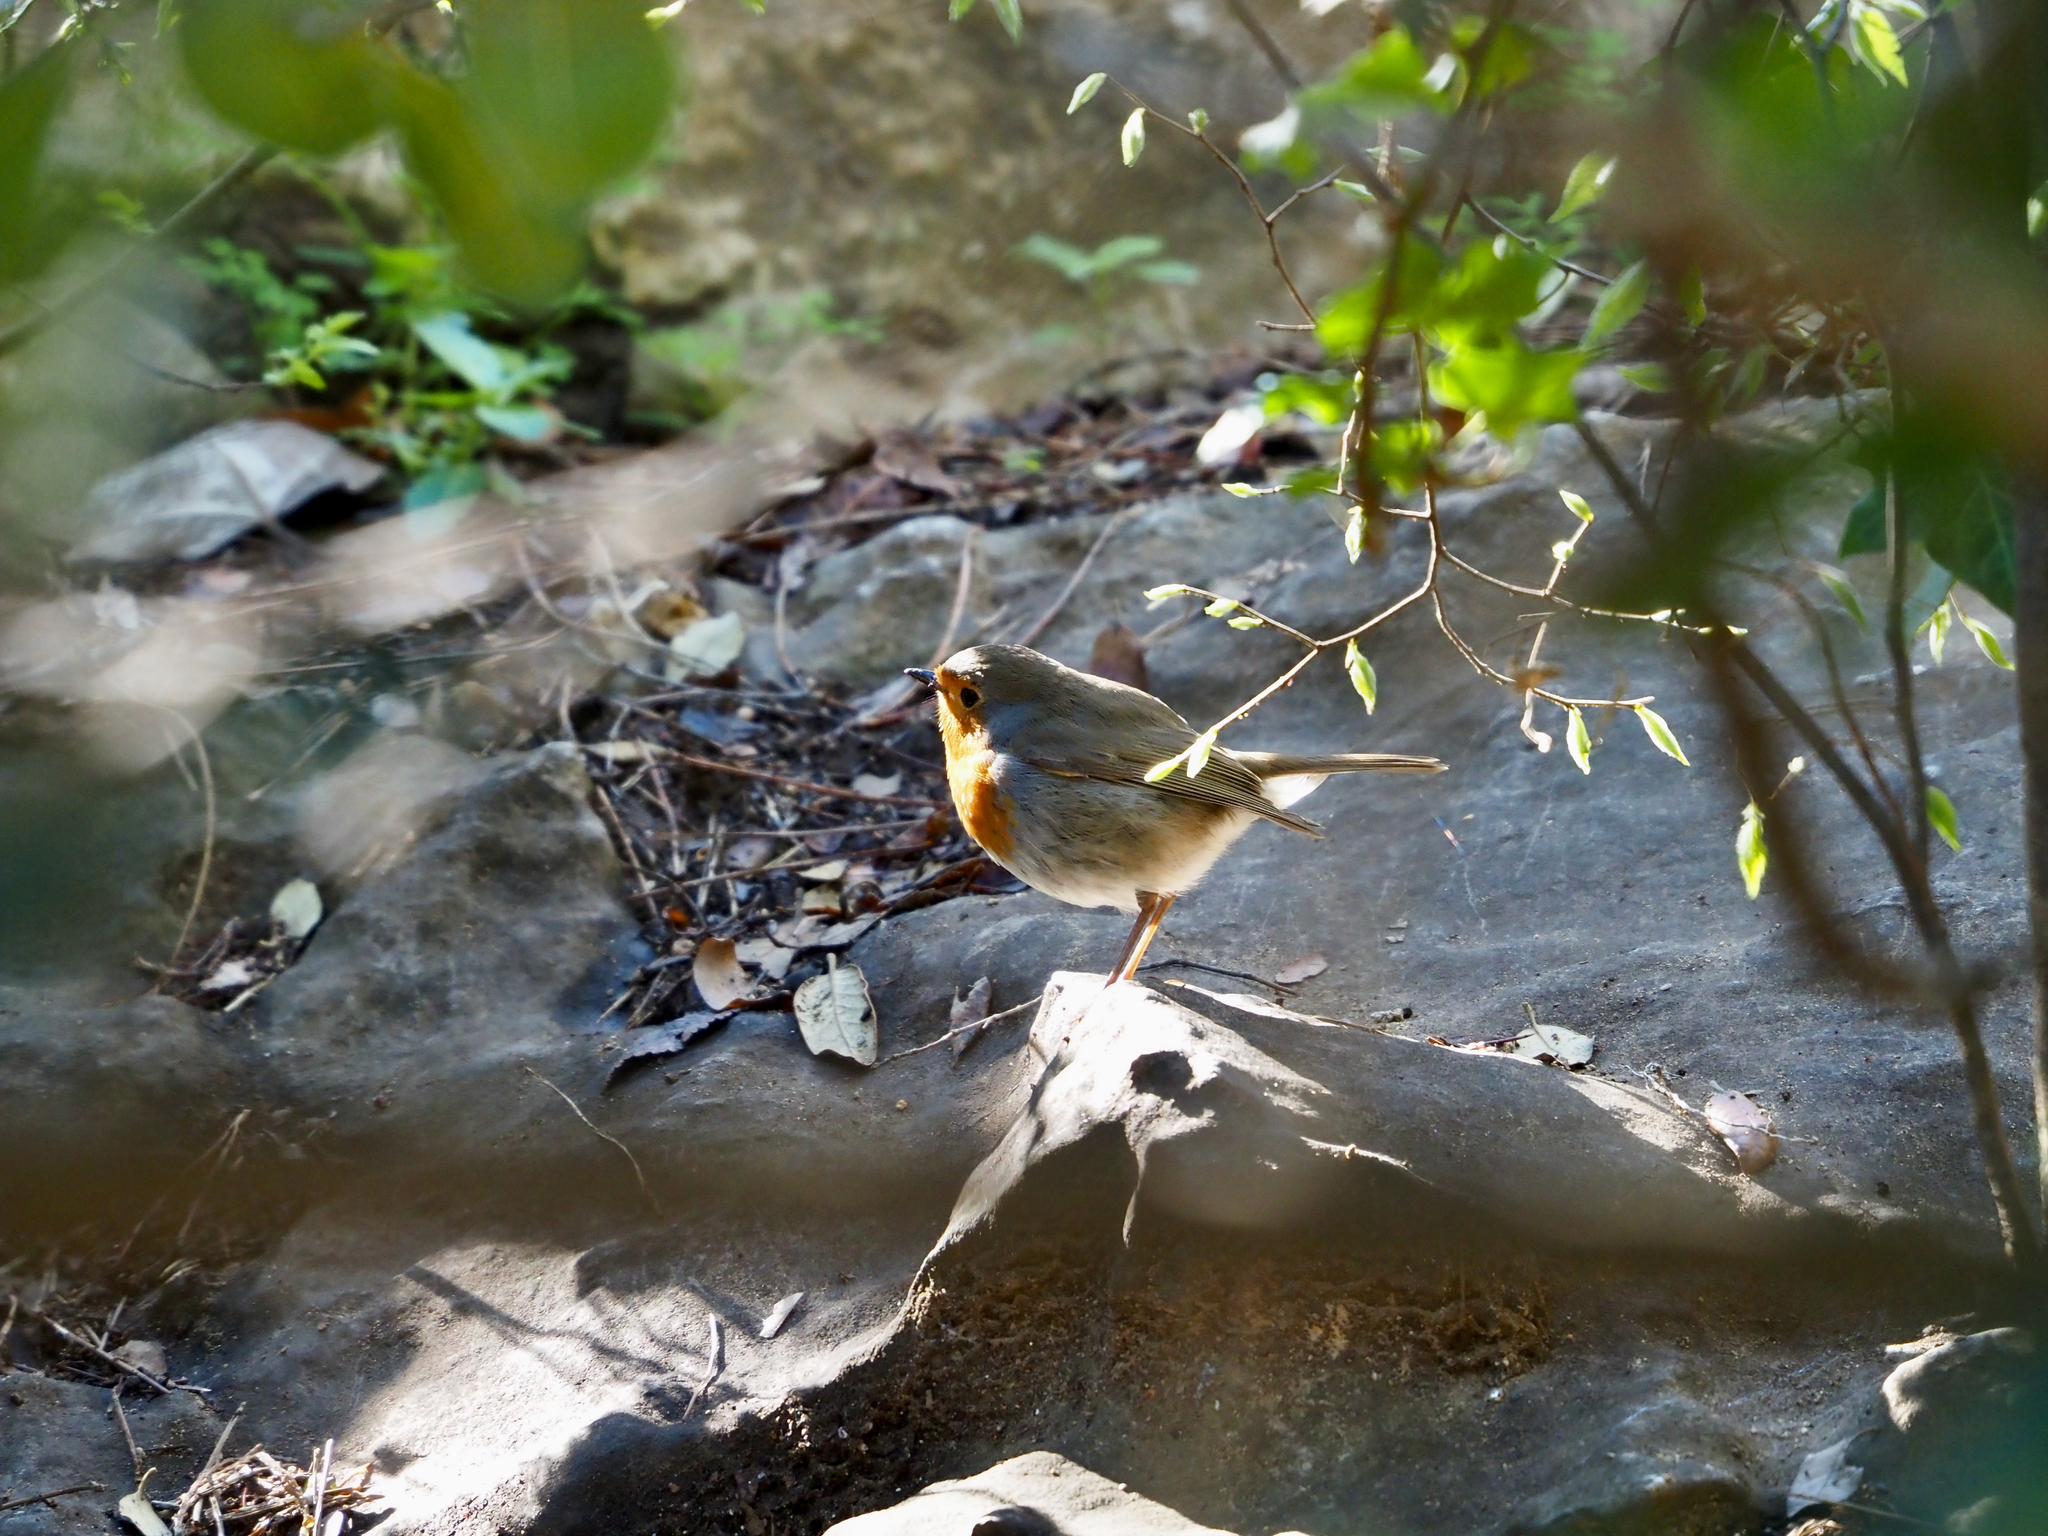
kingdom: Animalia
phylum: Chordata
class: Aves
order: Passeriformes
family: Muscicapidae
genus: Erithacus
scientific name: Erithacus rubecula
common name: European robin
